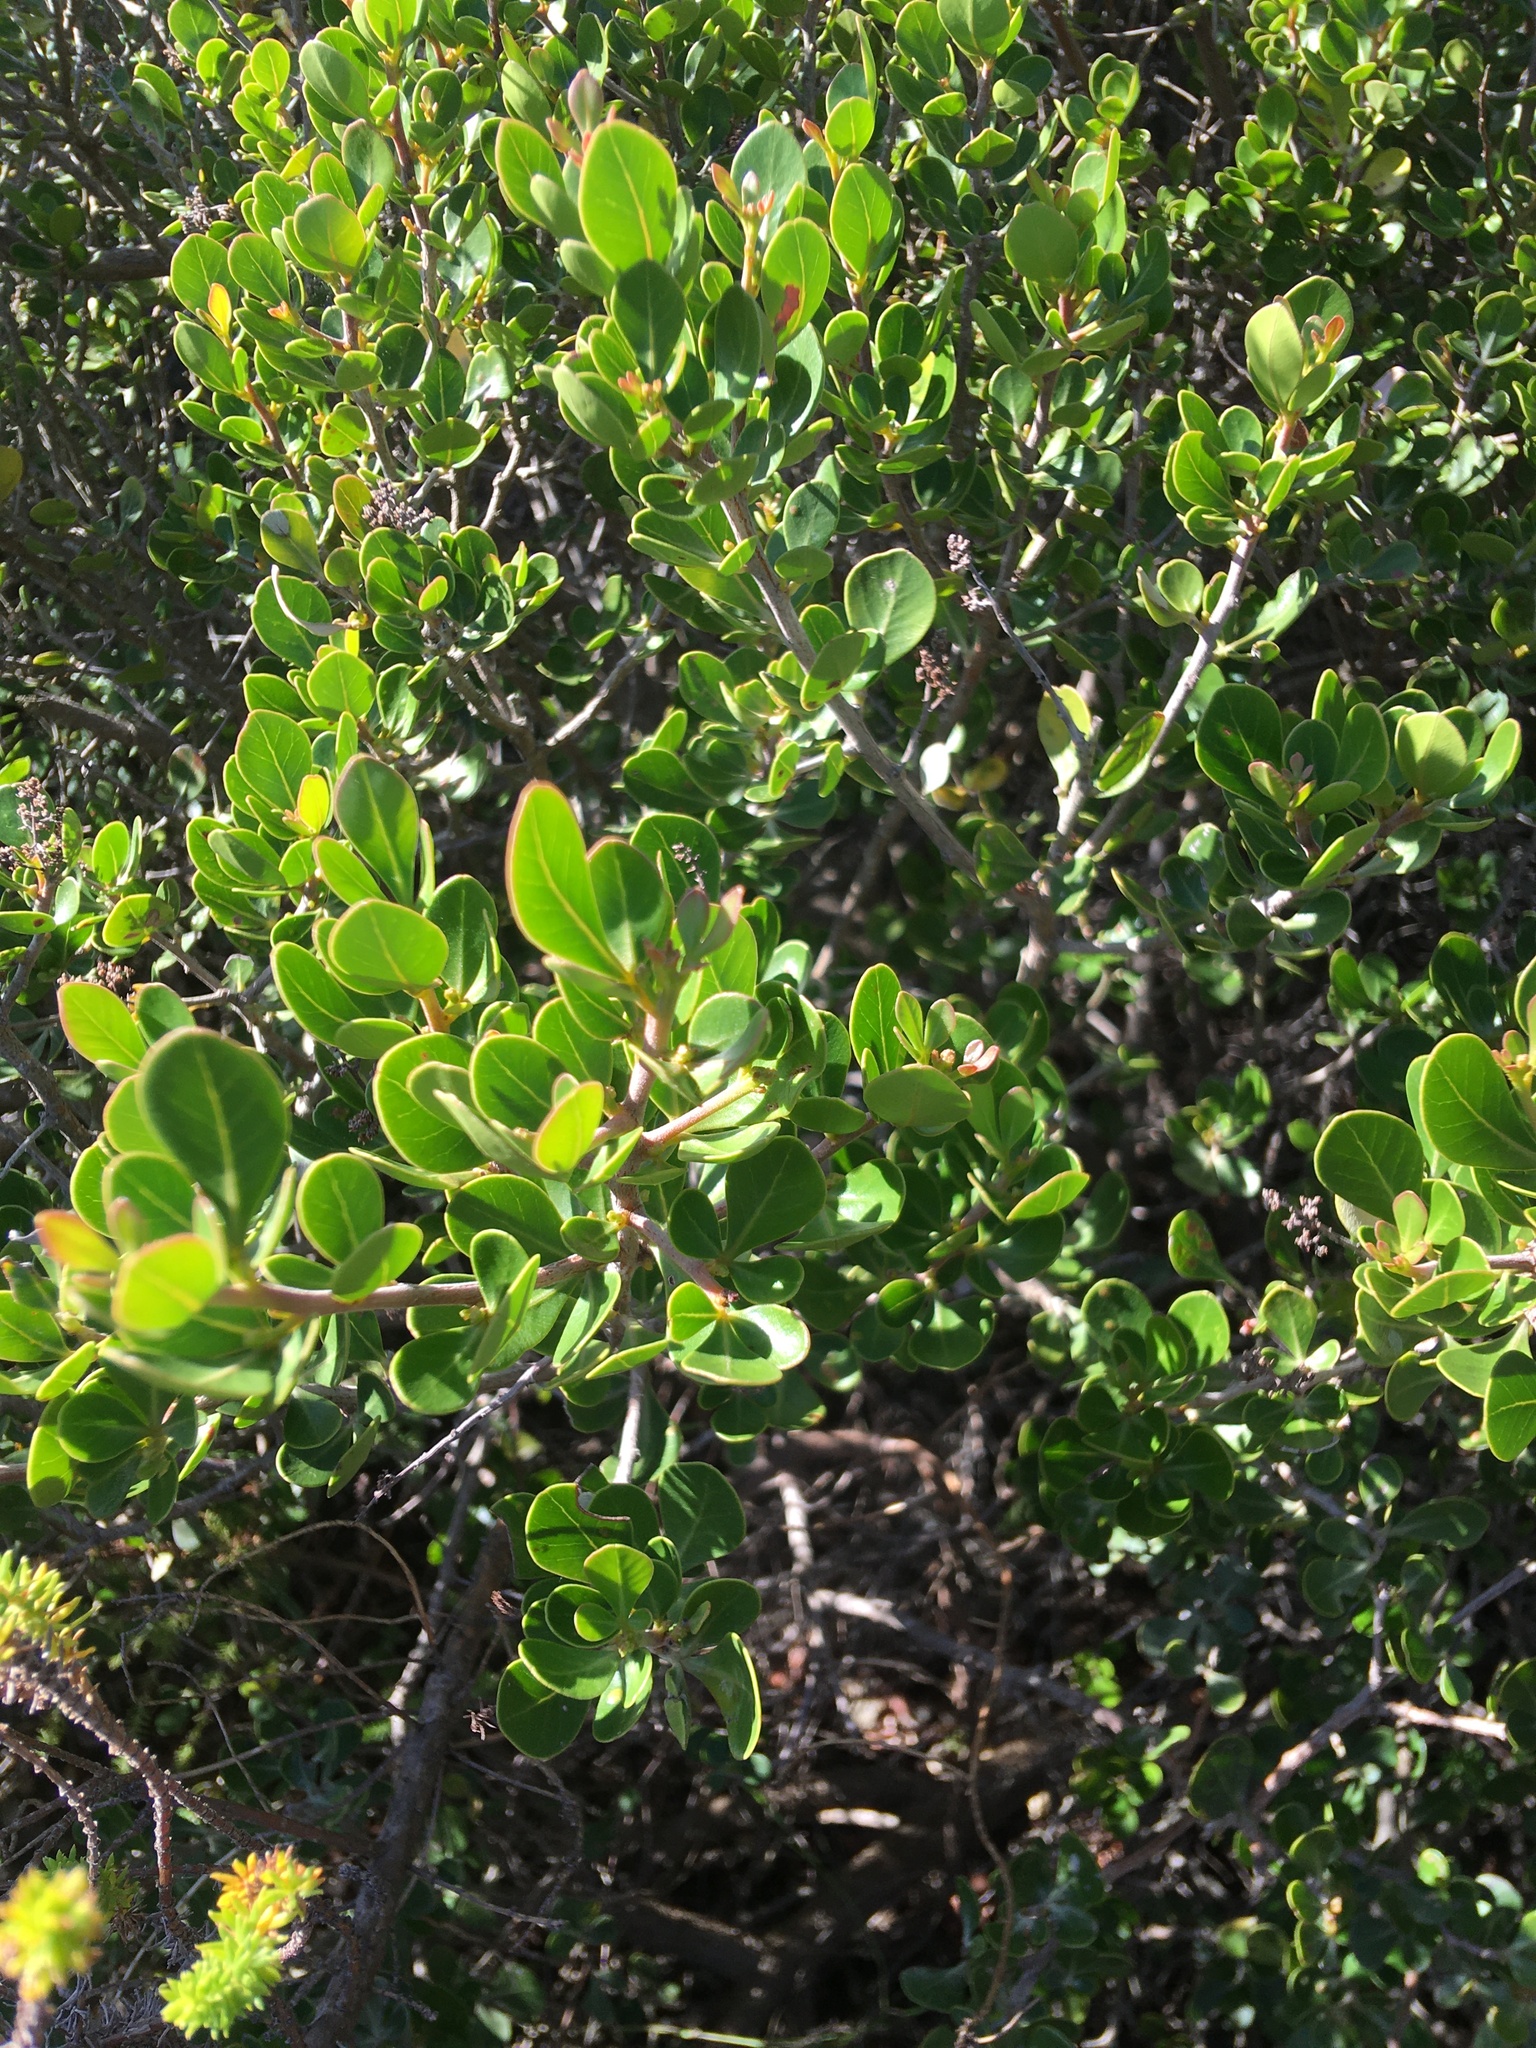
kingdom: Plantae
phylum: Tracheophyta
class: Magnoliopsida
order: Sapindales
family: Anacardiaceae
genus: Searsia
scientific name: Searsia lucida
